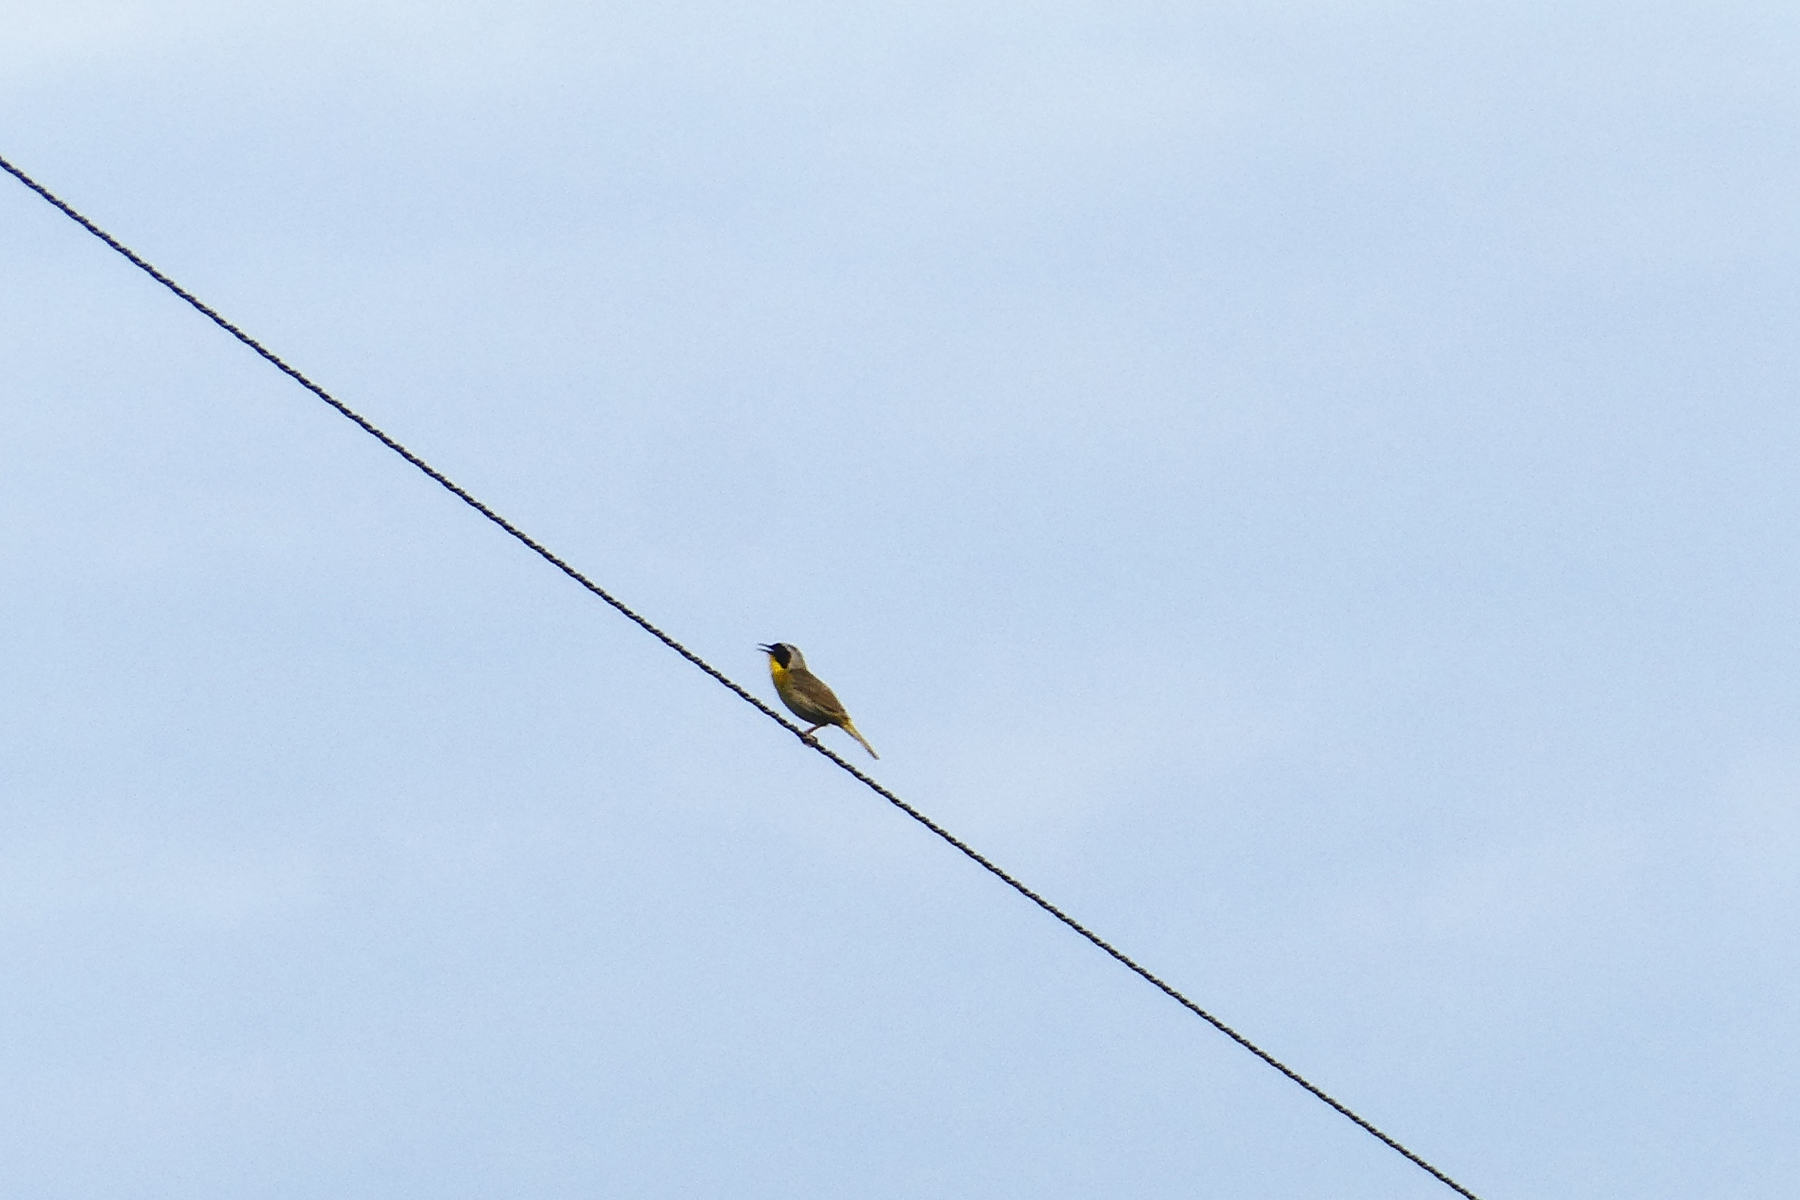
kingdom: Animalia
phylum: Chordata
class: Aves
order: Passeriformes
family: Parulidae
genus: Geothlypis
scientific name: Geothlypis trichas
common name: Common yellowthroat
